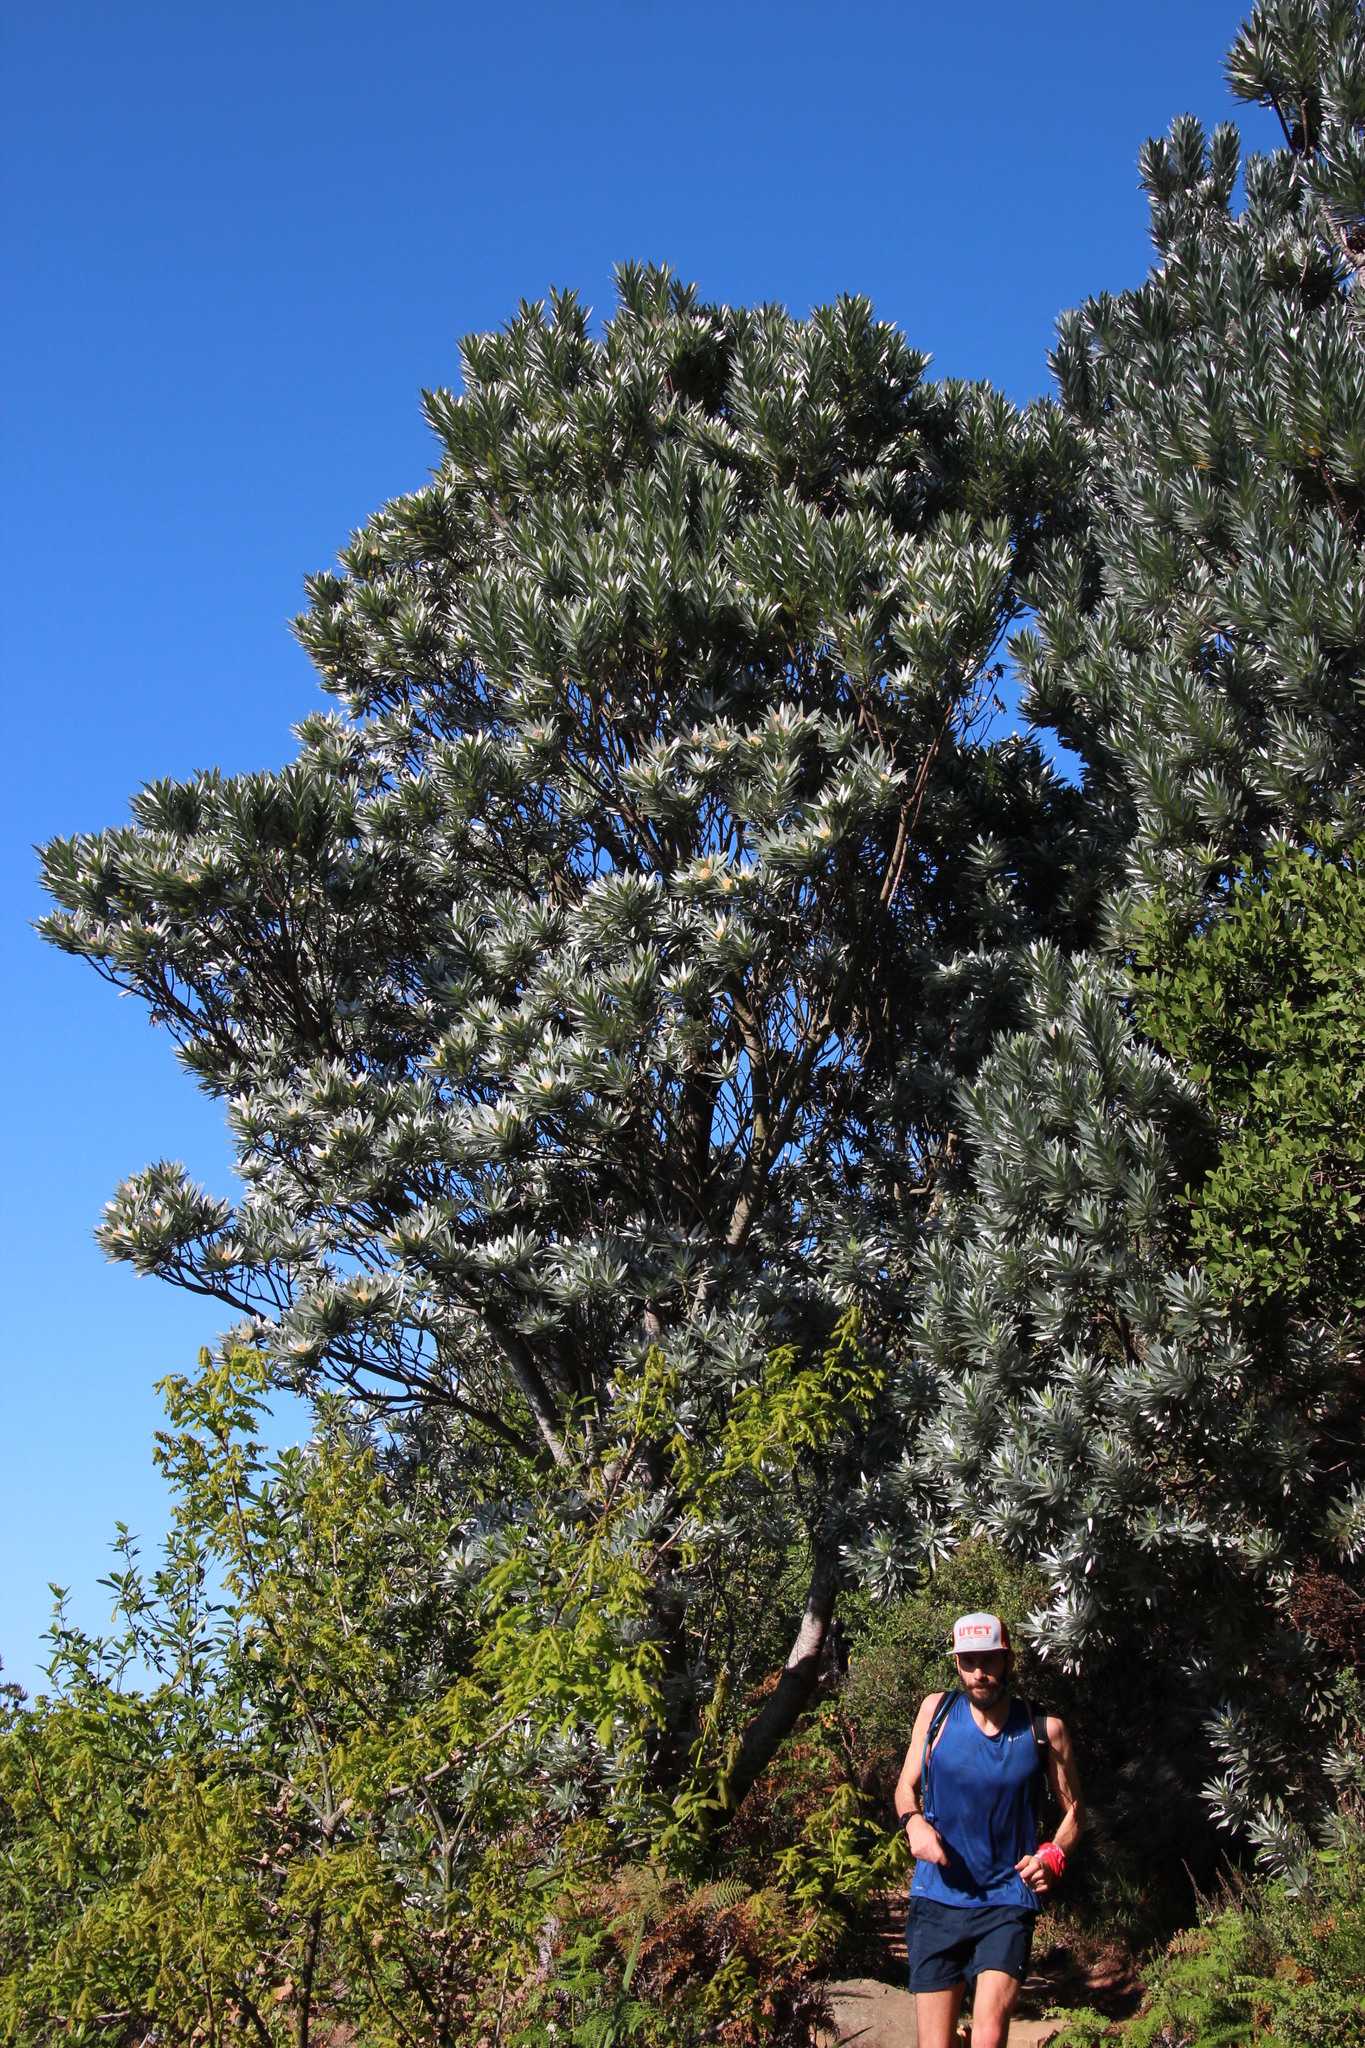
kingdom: Plantae
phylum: Tracheophyta
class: Magnoliopsida
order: Proteales
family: Proteaceae
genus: Leucadendron
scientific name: Leucadendron argenteum
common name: Cape silver tree
